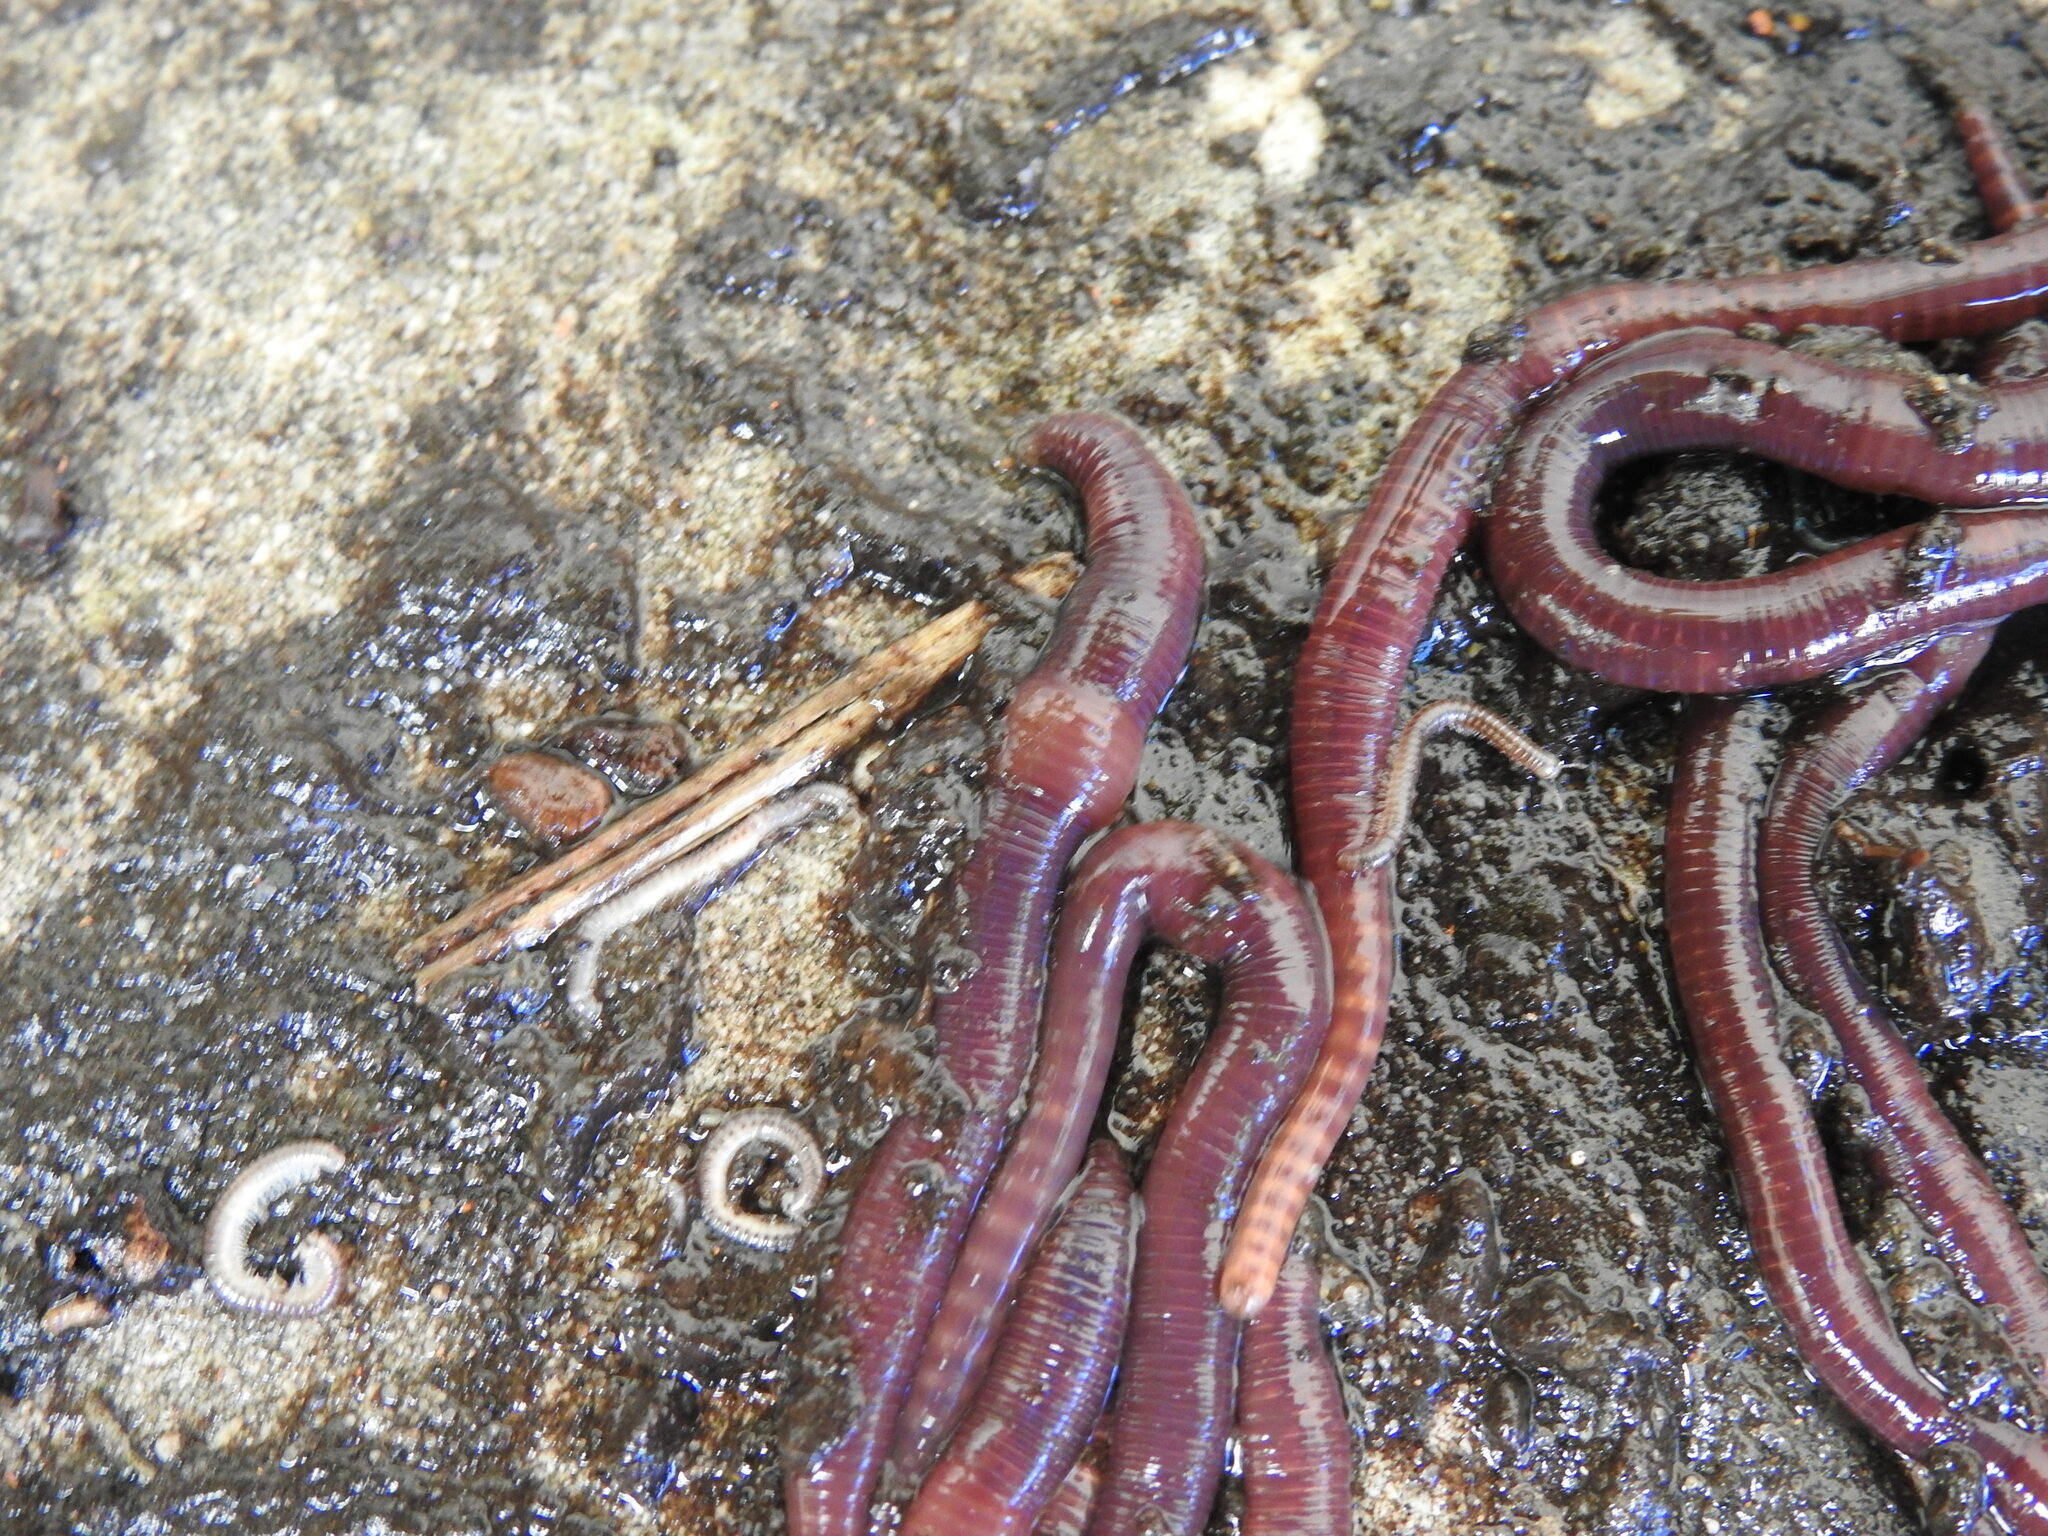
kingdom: Animalia
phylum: Annelida
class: Clitellata
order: Crassiclitellata
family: Lumbricidae
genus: Eisenia
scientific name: Eisenia andrei
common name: Manure worm
